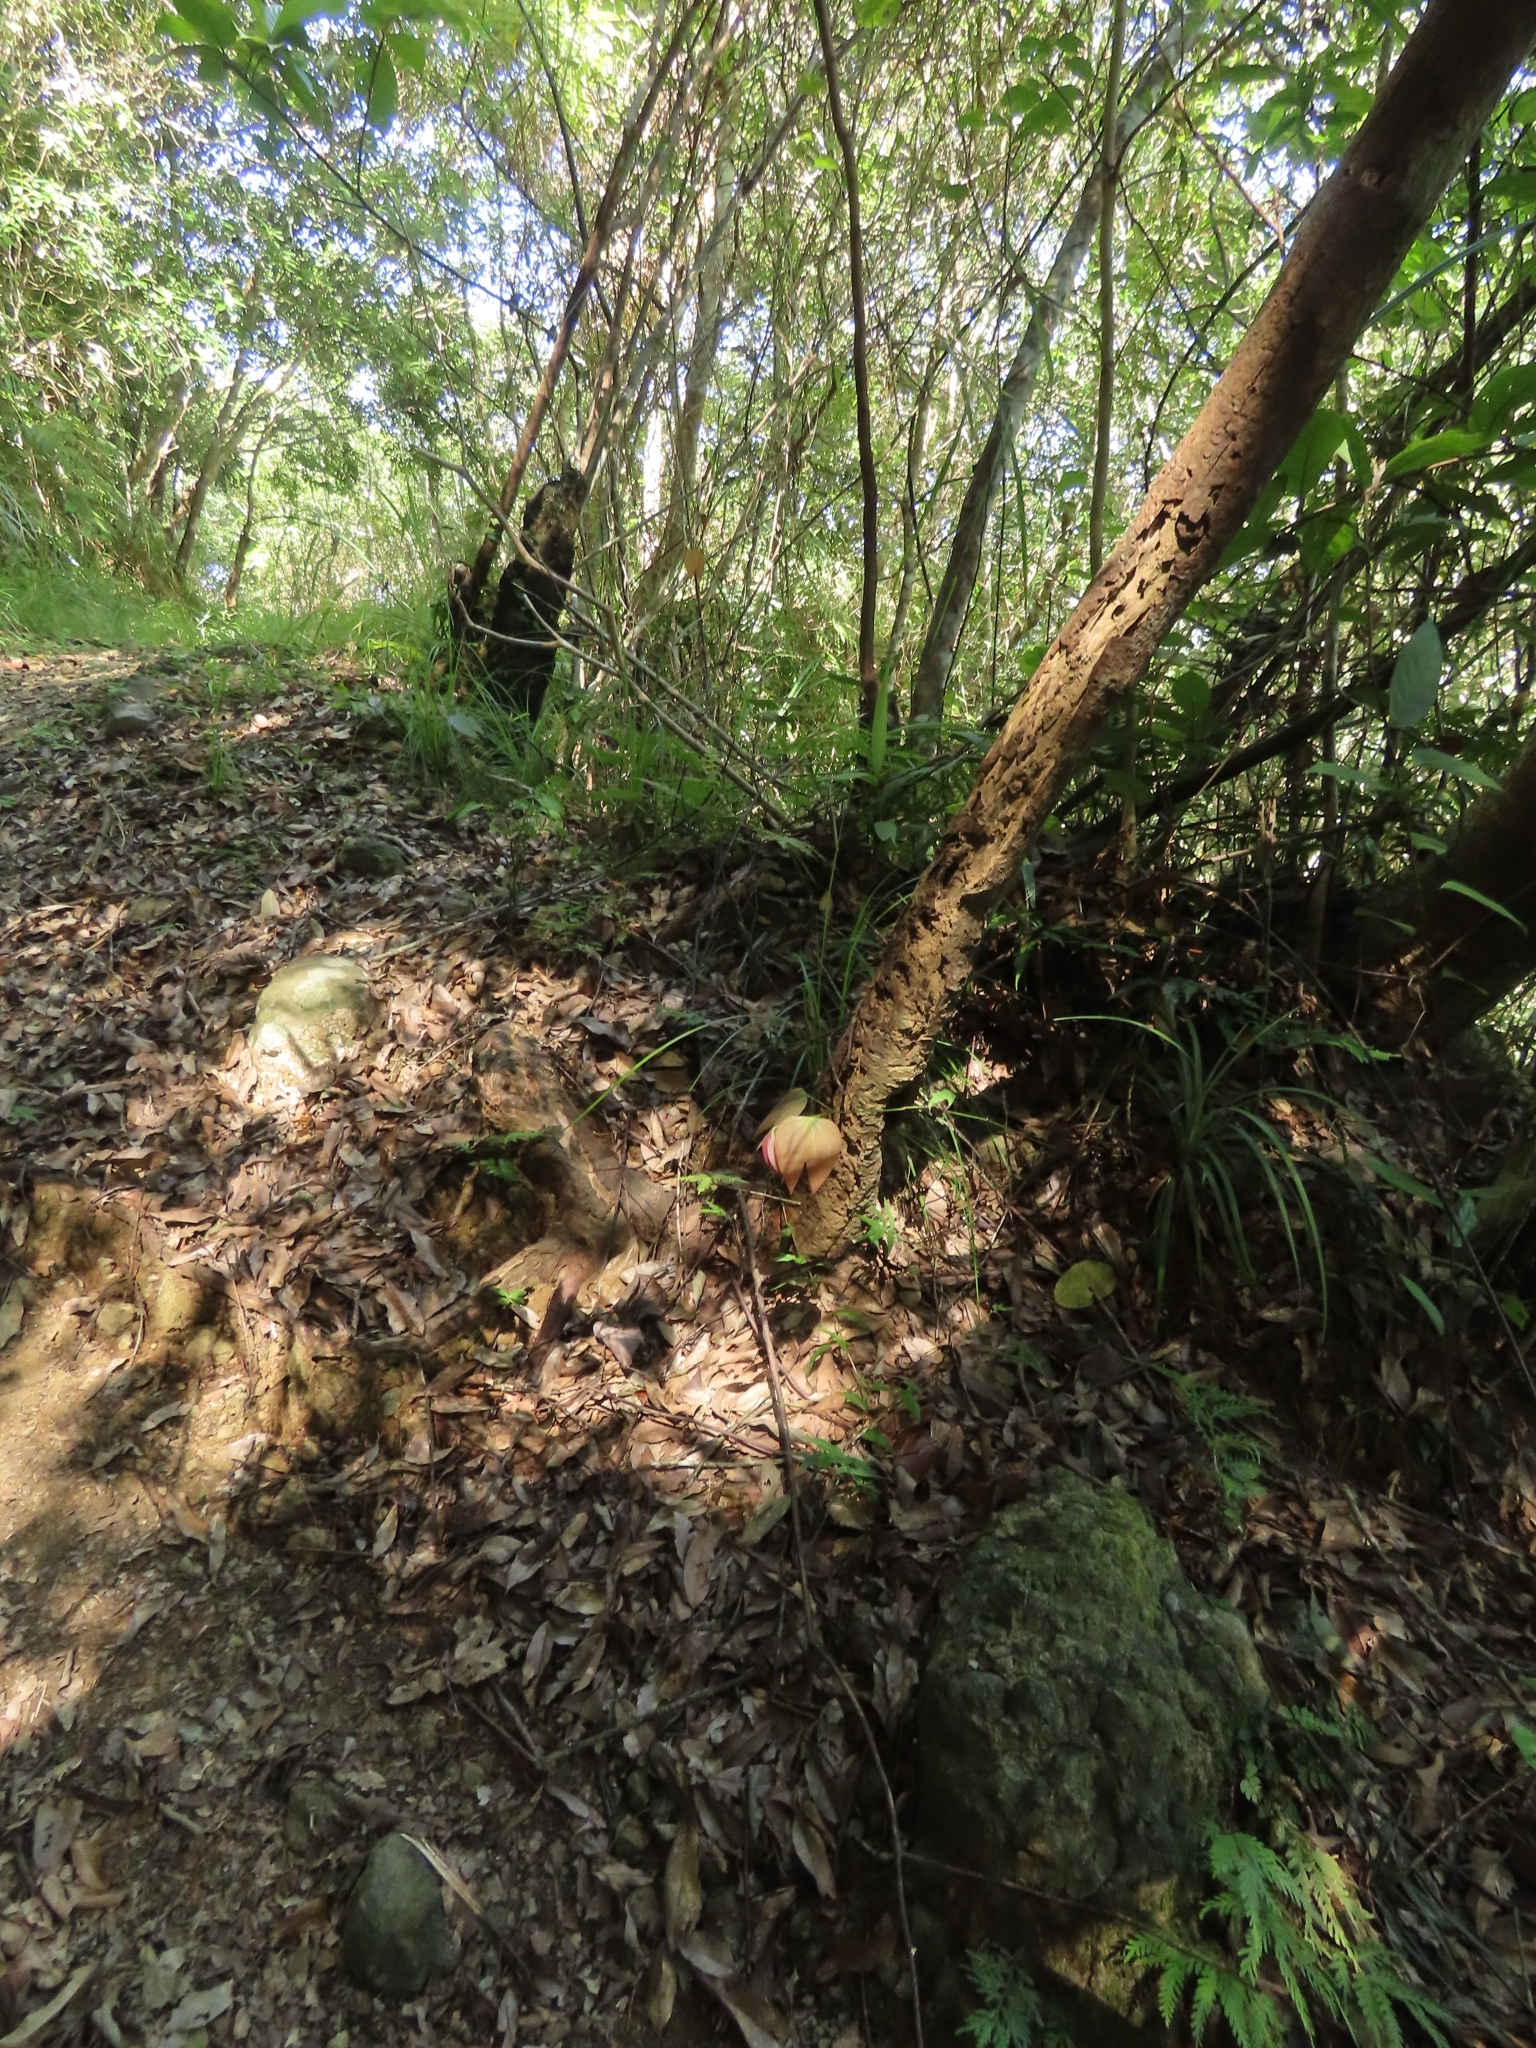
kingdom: Plantae
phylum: Tracheophyta
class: Magnoliopsida
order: Fabales
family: Fabaceae
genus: Phanera
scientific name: Phanera championii
